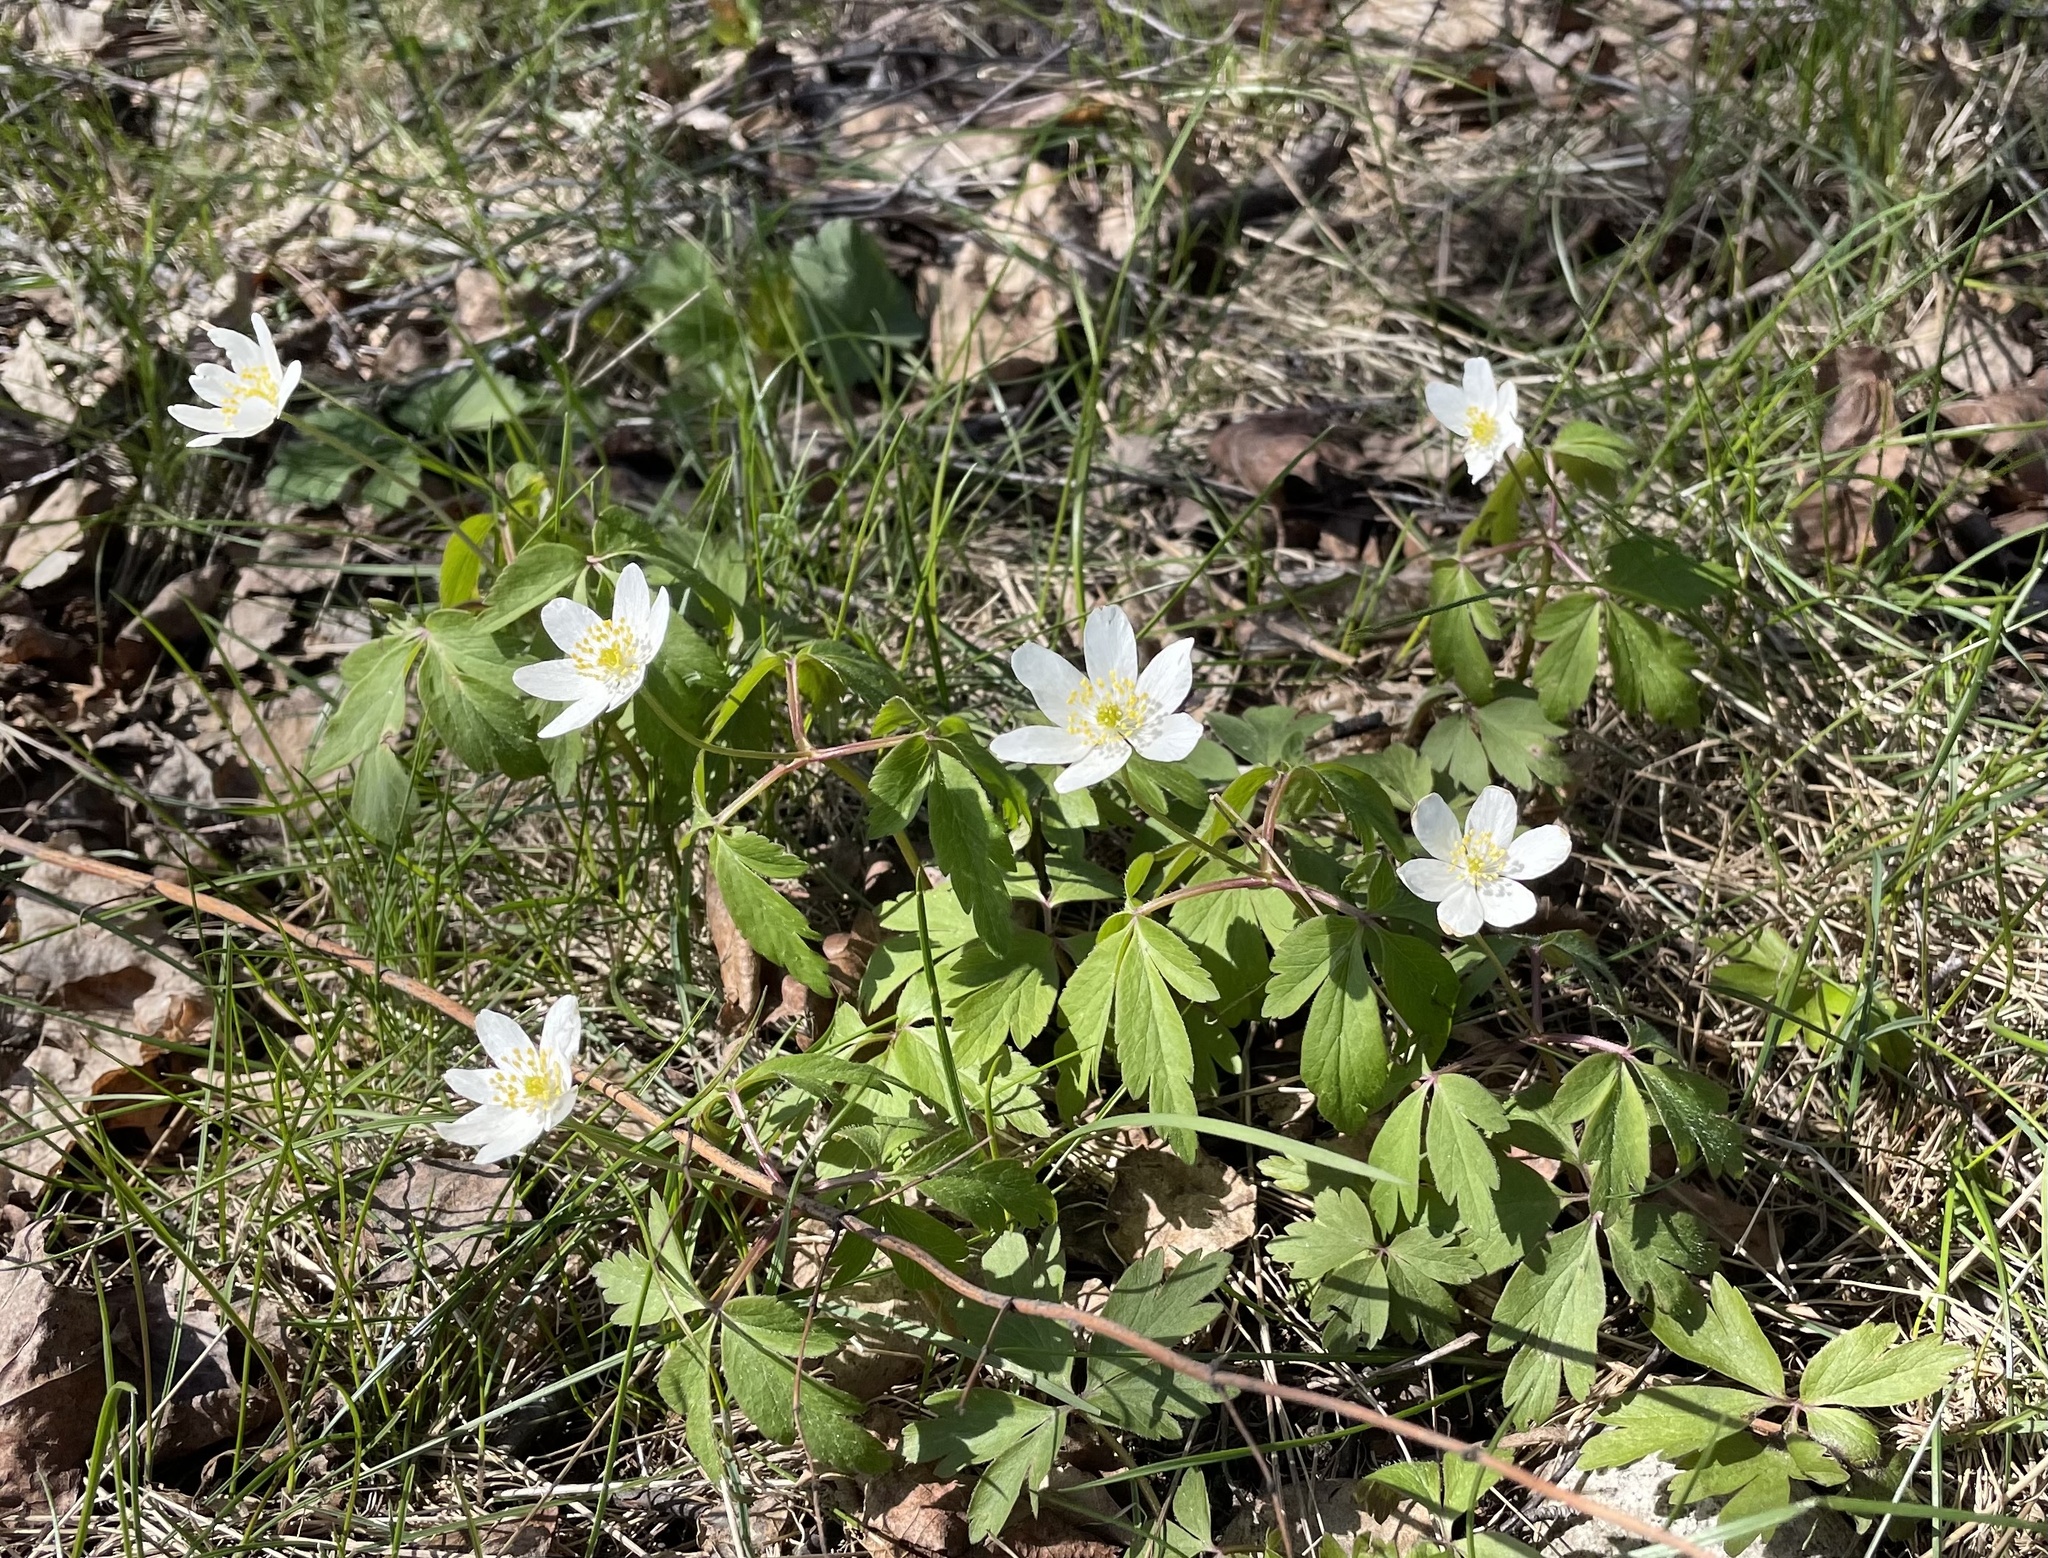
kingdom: Plantae
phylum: Tracheophyta
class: Magnoliopsida
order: Ranunculales
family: Ranunculaceae
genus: Anemone
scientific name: Anemone nemorosa
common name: Wood anemone
